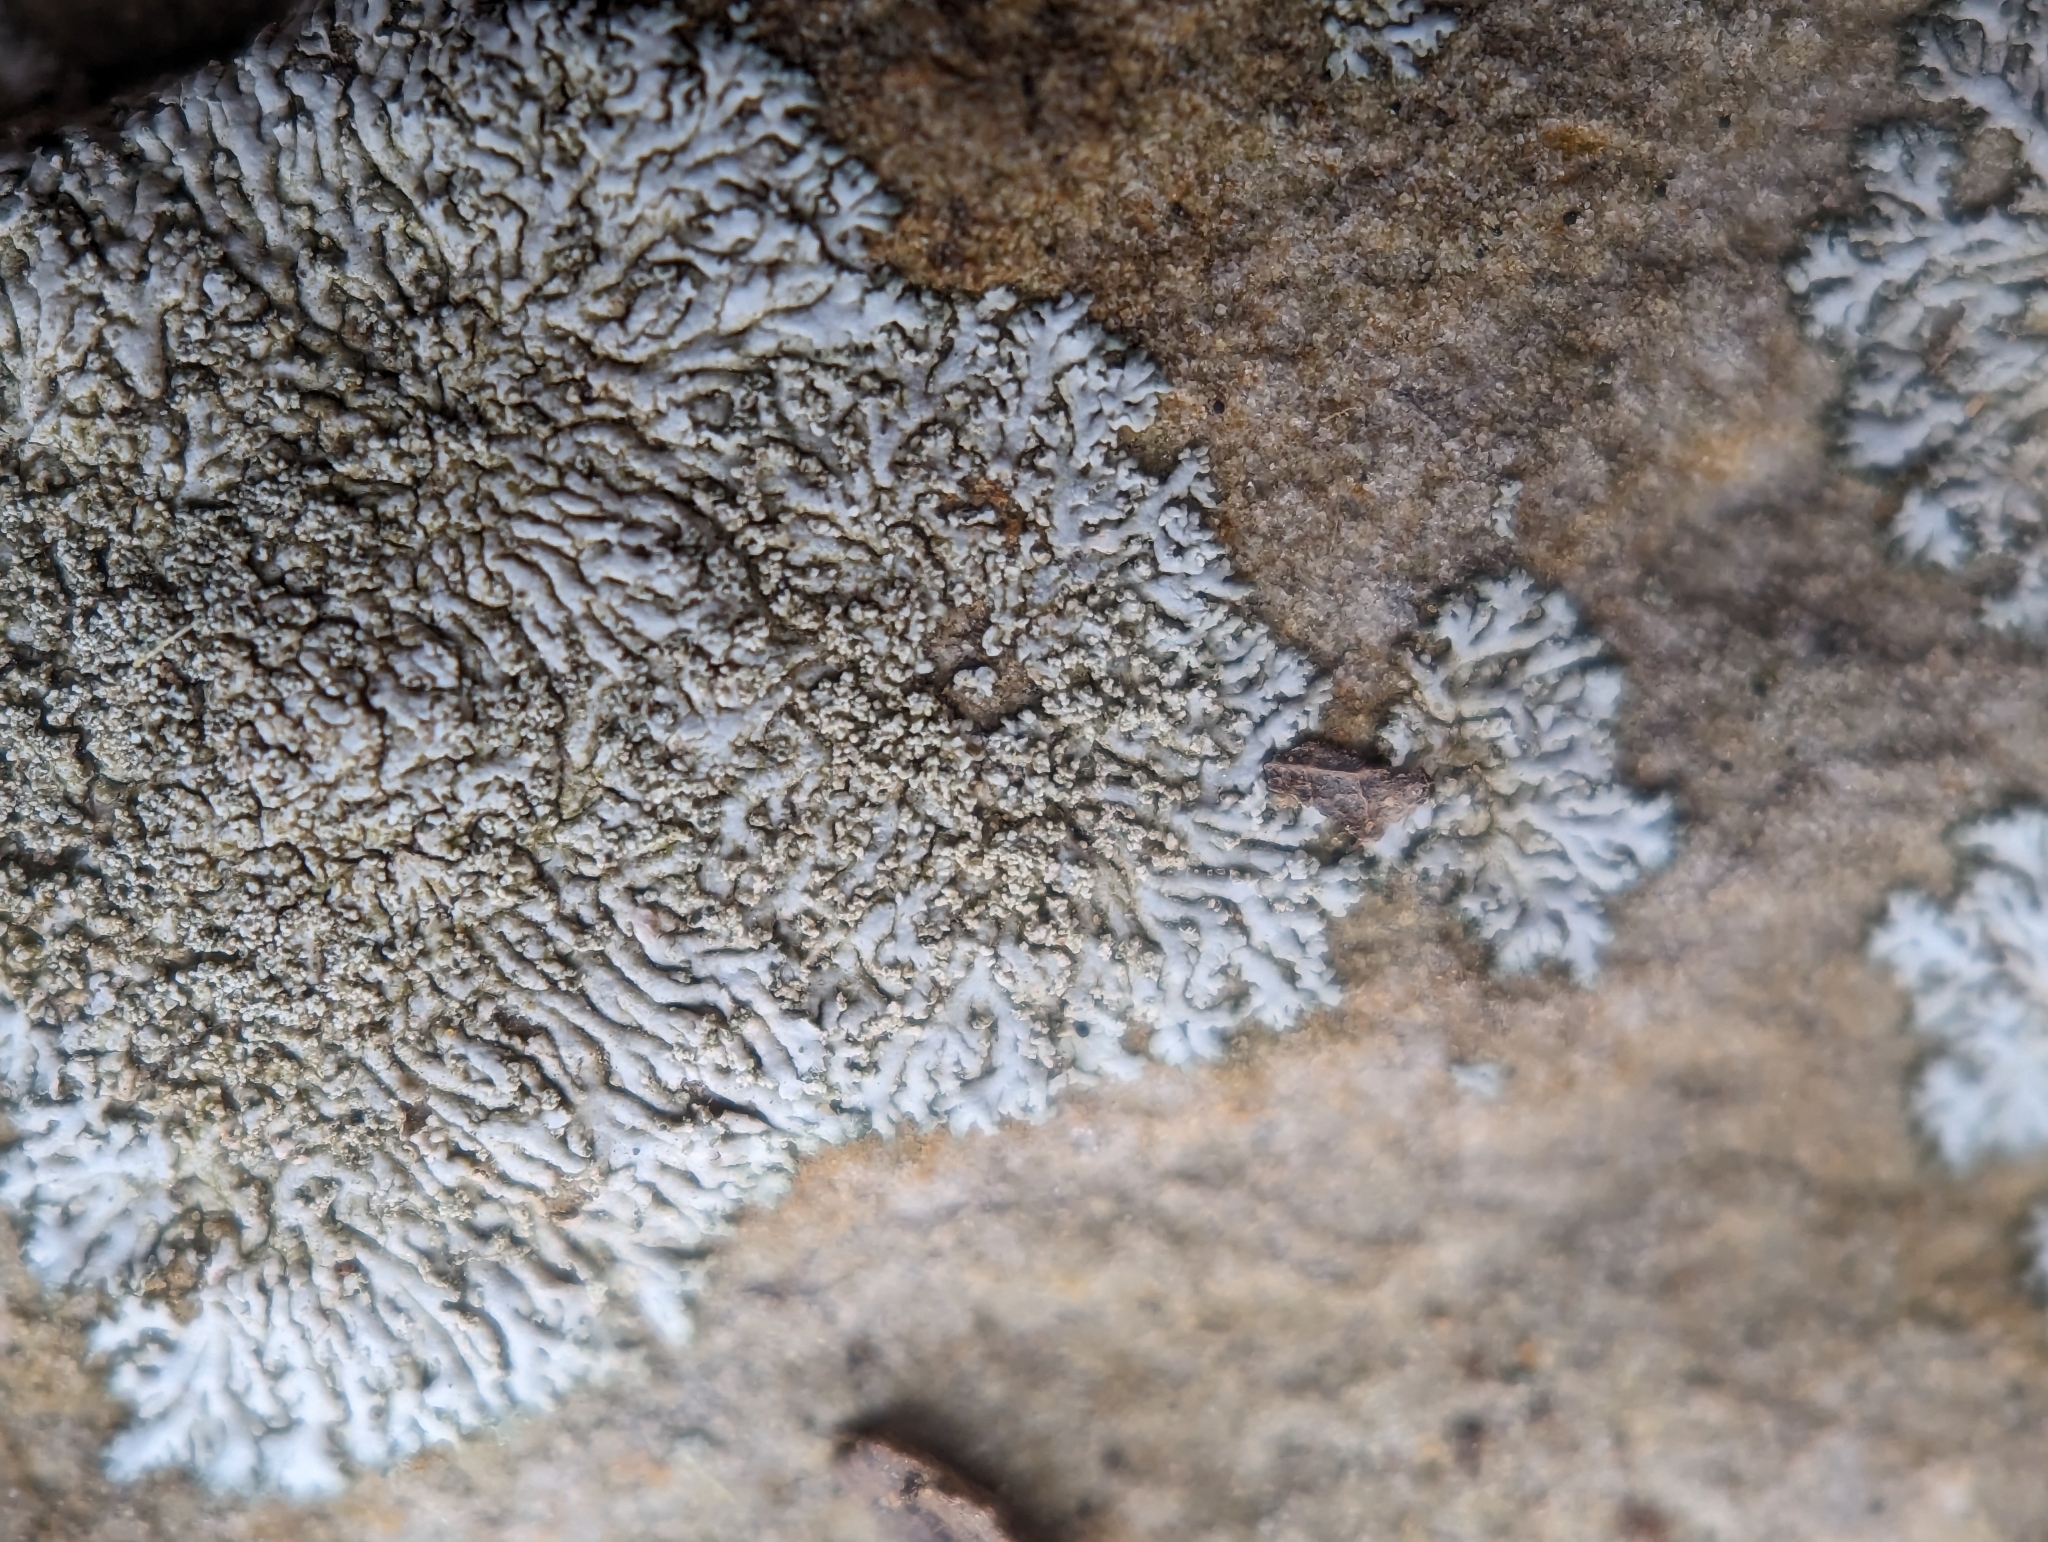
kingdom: Fungi
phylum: Ascomycota
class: Lecanoromycetes
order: Caliciales
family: Physciaceae
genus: Physcia
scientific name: Physcia thomsoniana
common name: Thomson's rosette lichen
